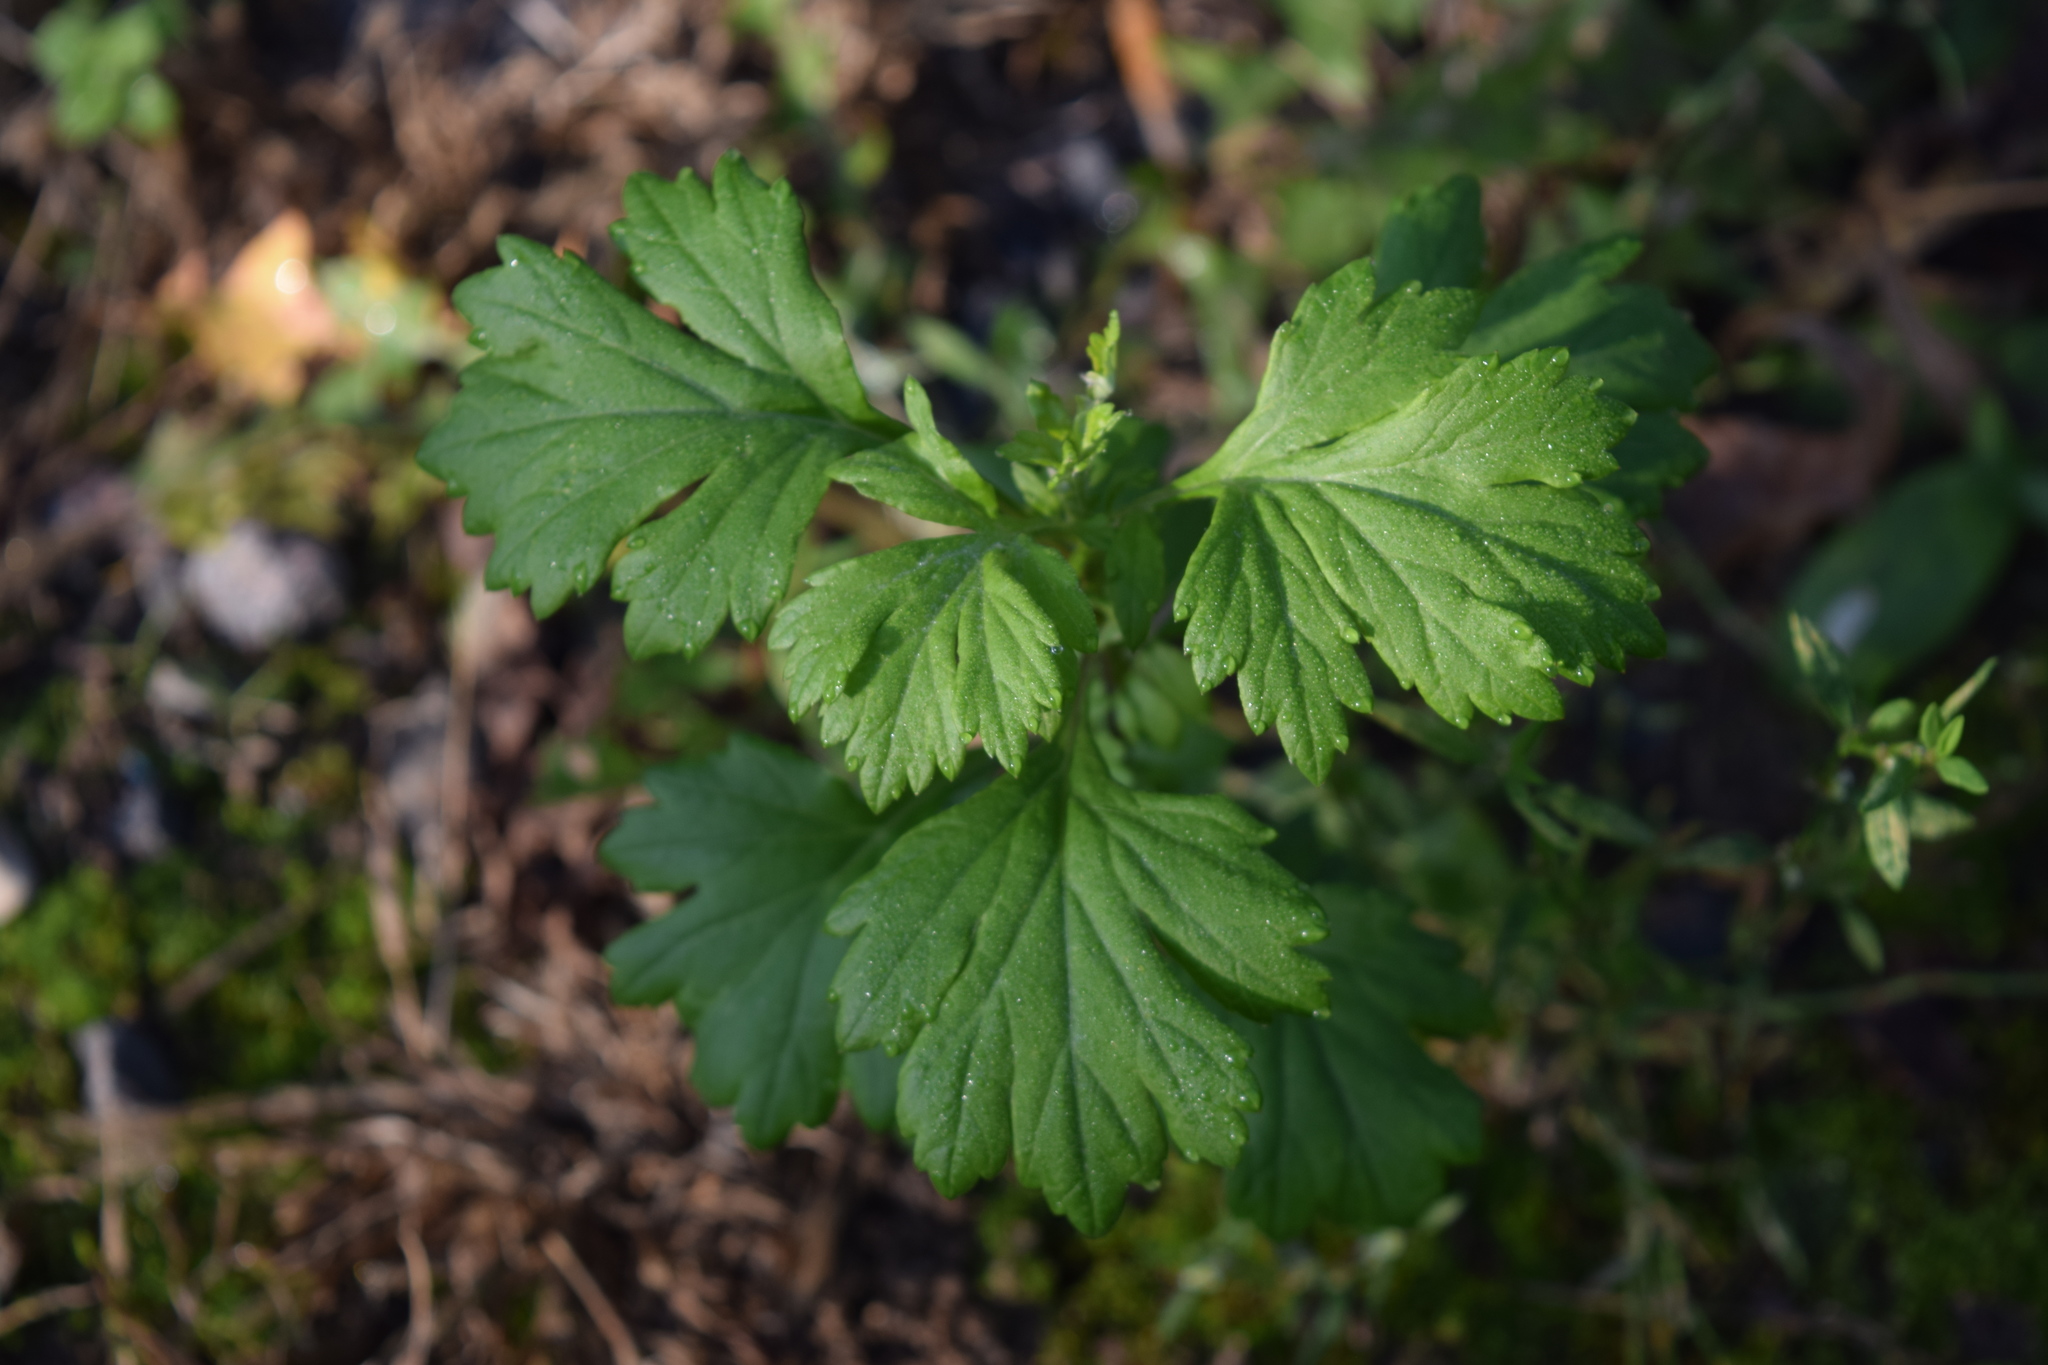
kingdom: Plantae
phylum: Tracheophyta
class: Magnoliopsida
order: Asterales
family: Asteraceae
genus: Artemisia
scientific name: Artemisia vulgaris
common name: Mugwort
